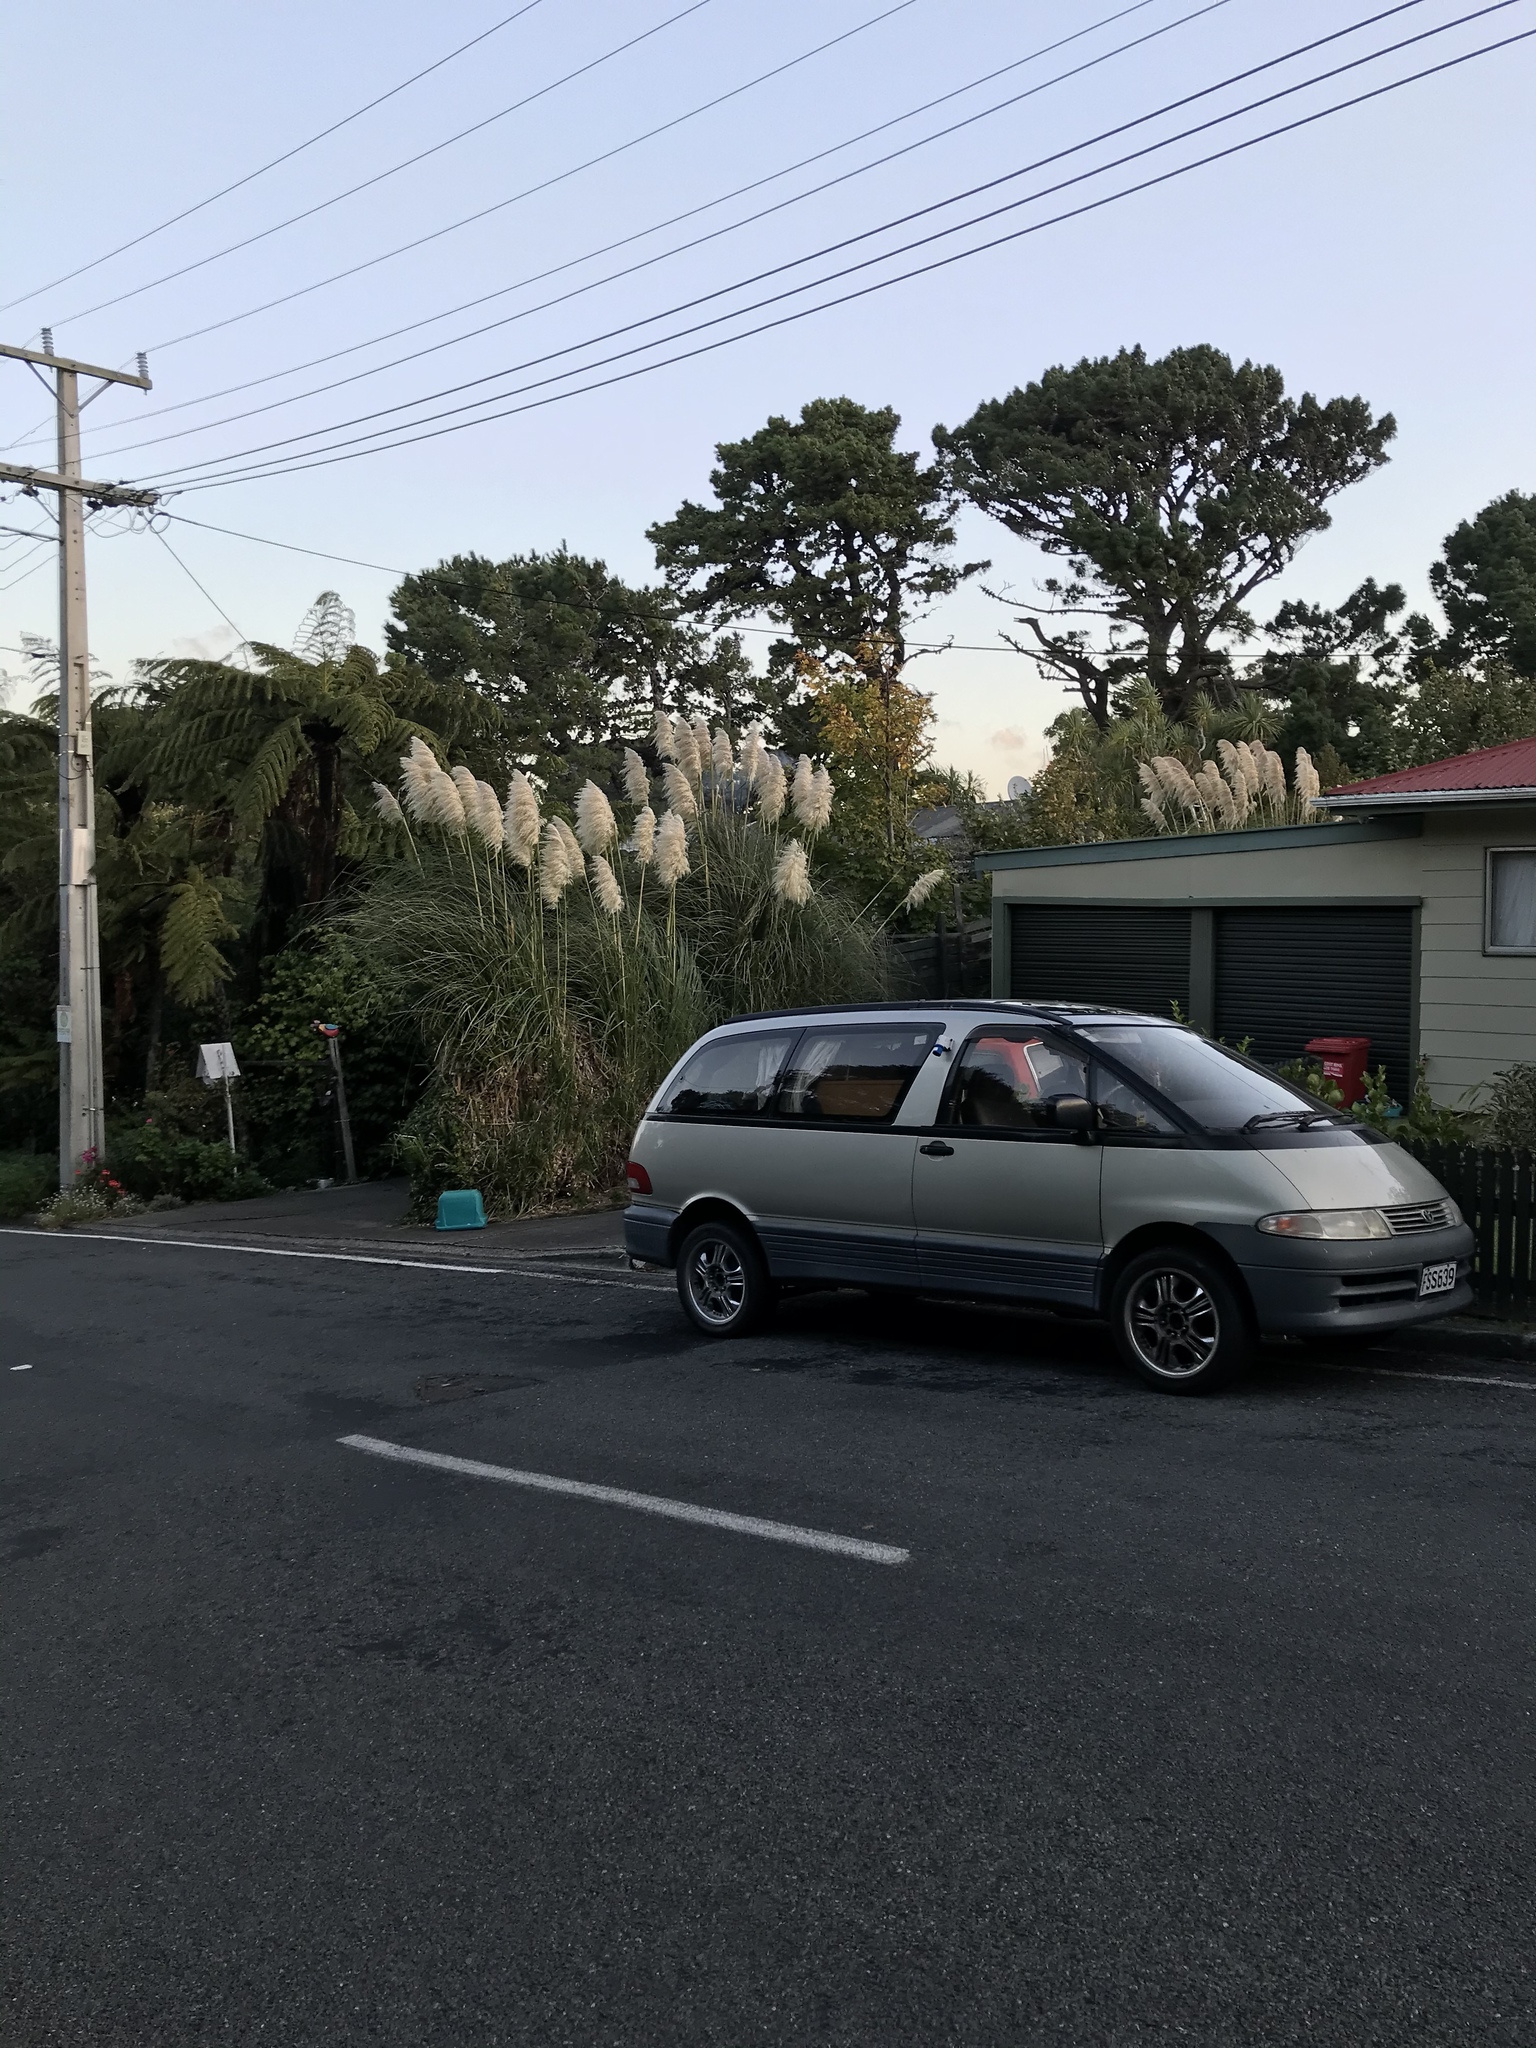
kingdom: Plantae
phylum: Tracheophyta
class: Liliopsida
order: Poales
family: Poaceae
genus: Cortaderia
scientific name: Cortaderia selloana
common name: Uruguayan pampas grass
